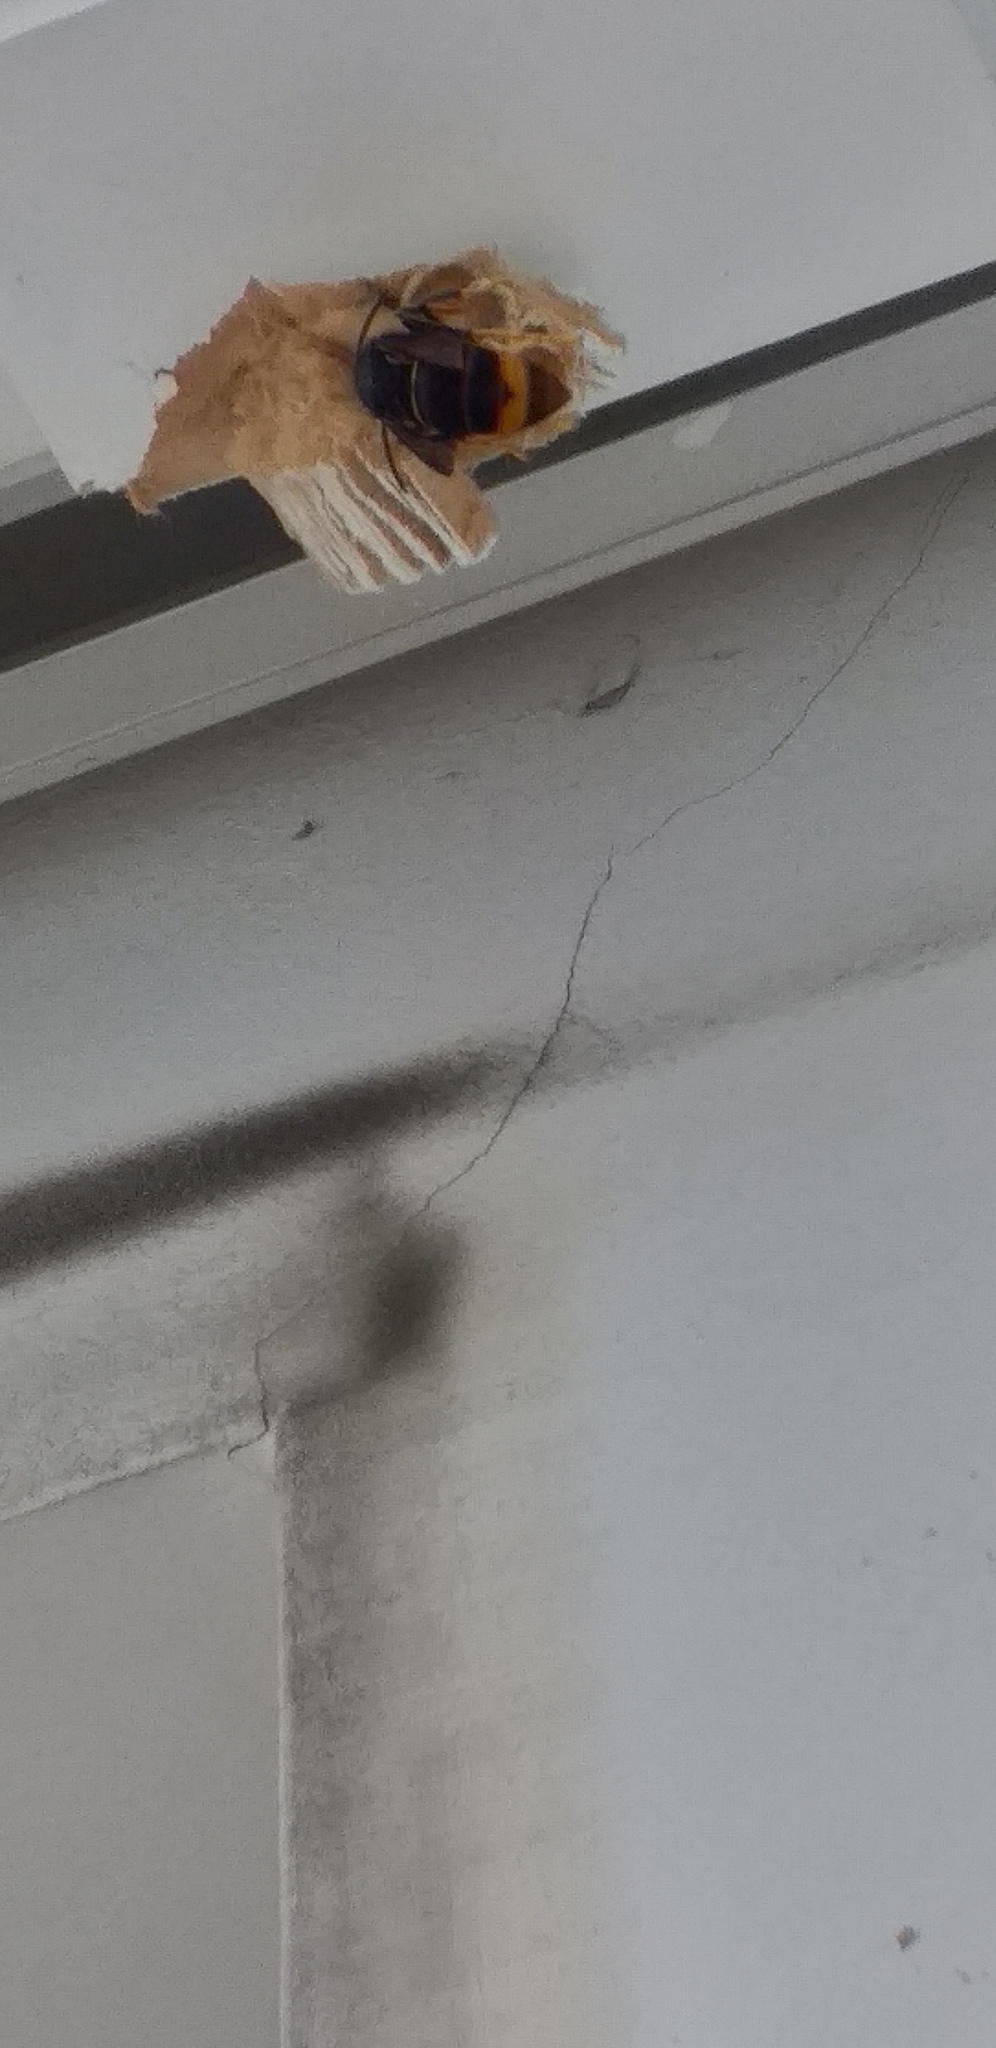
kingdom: Animalia
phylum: Arthropoda
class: Insecta
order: Hymenoptera
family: Vespidae
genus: Vespa
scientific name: Vespa velutina
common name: Asian hornet
